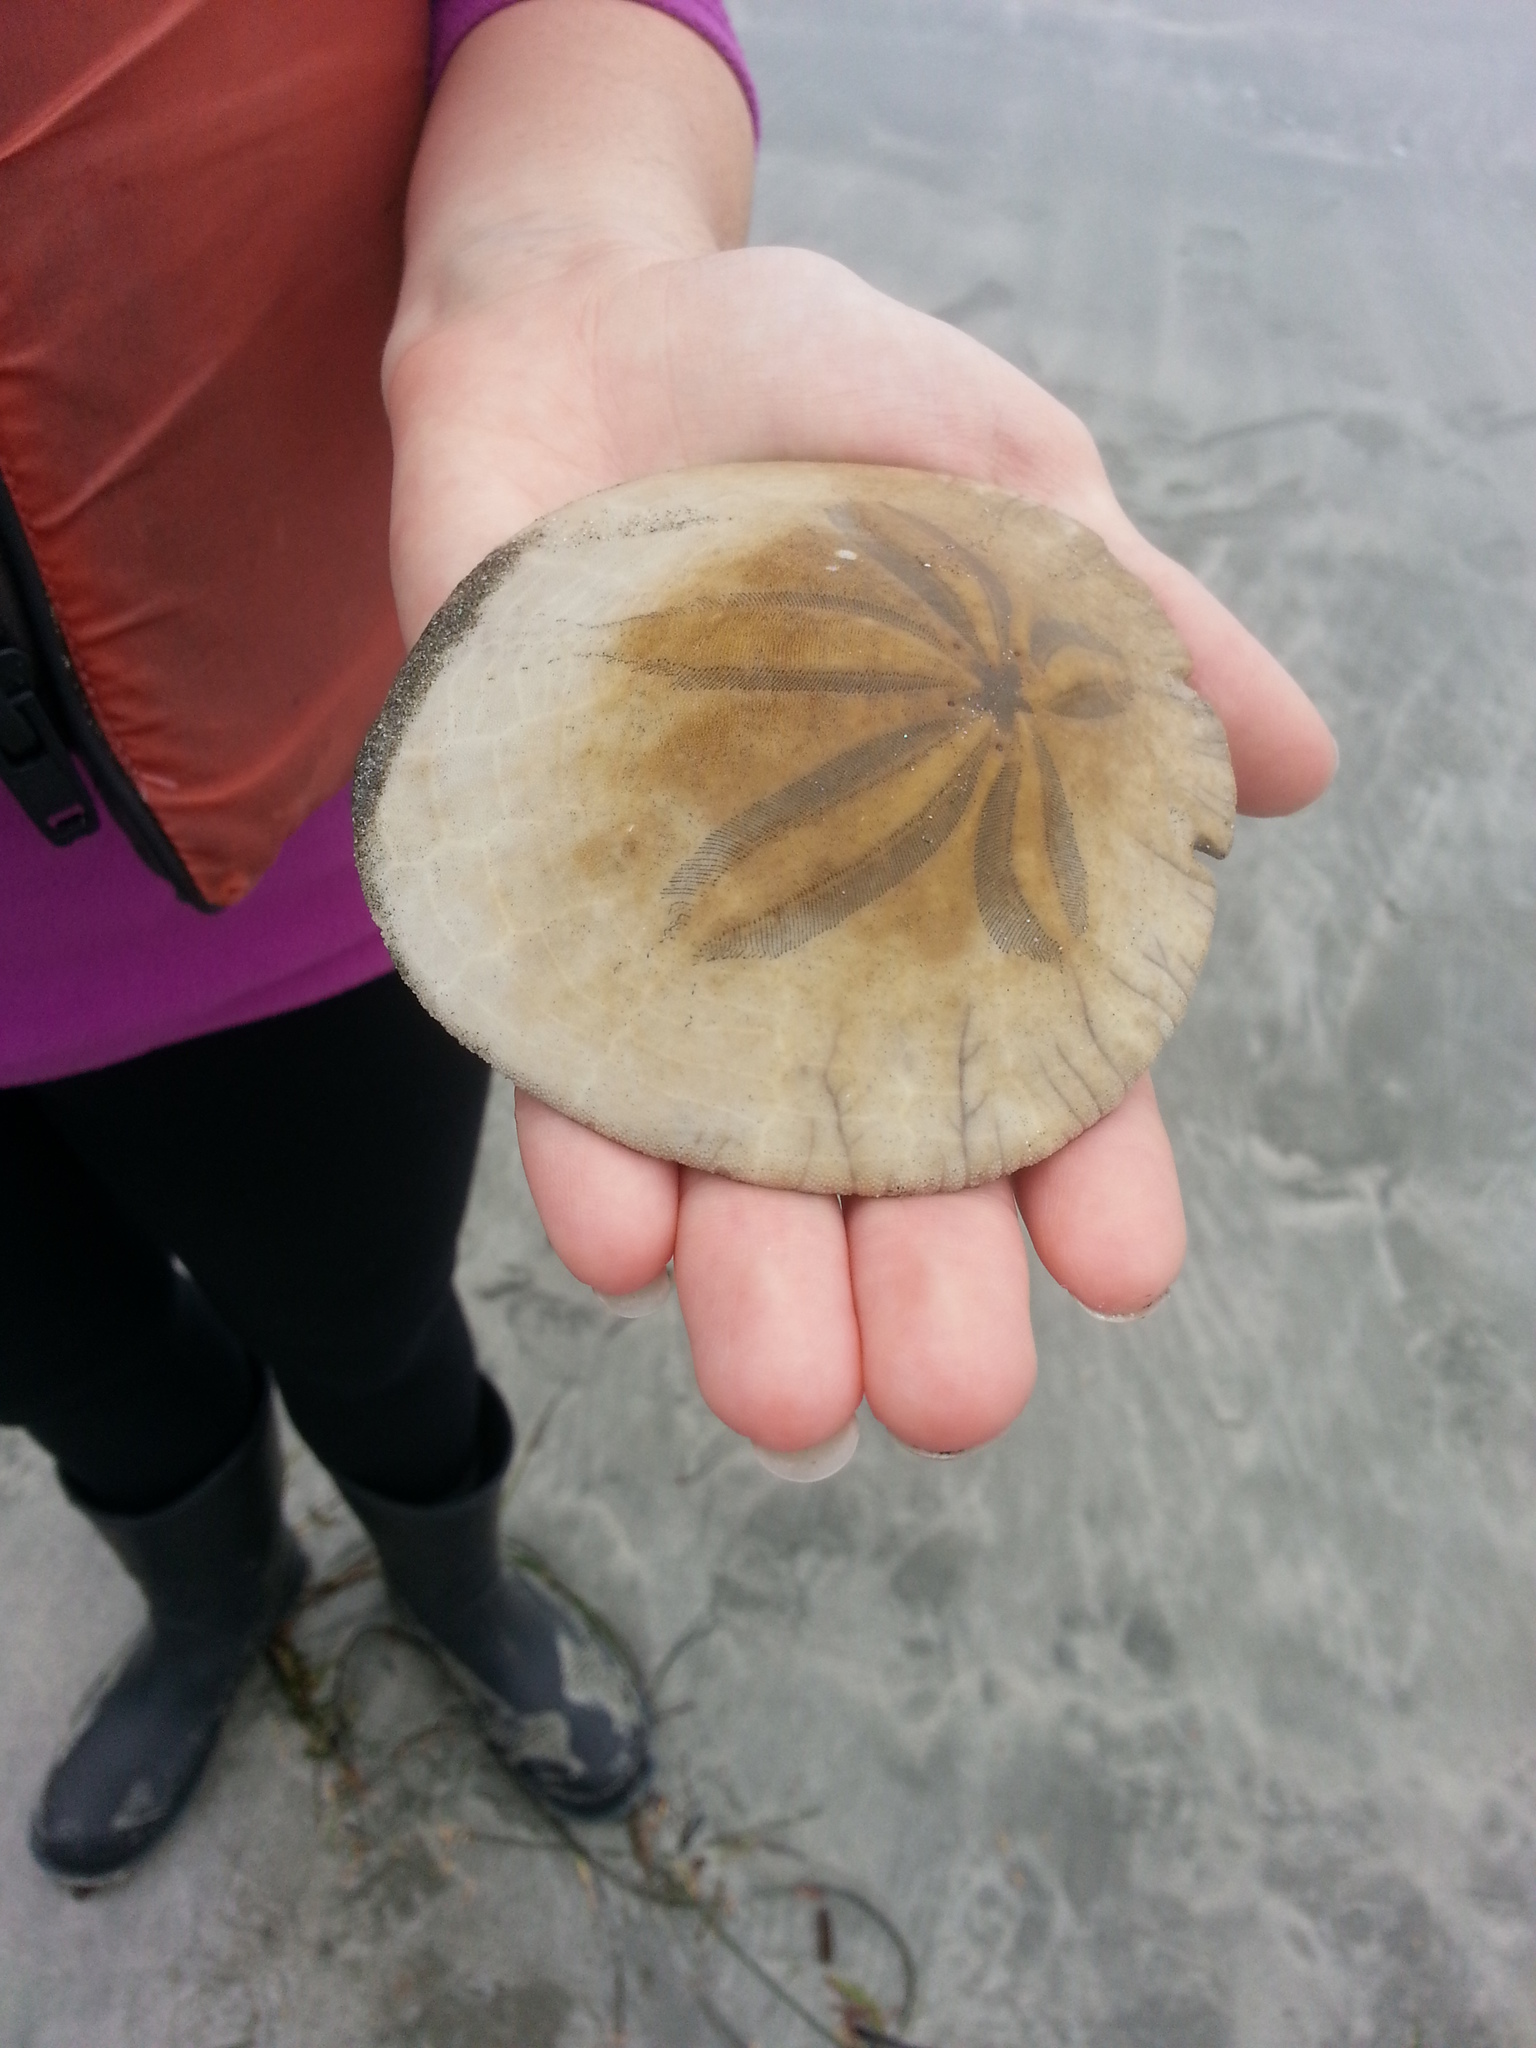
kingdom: Animalia
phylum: Echinodermata
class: Echinoidea
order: Echinolampadacea
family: Dendrasteridae
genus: Dendraster
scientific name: Dendraster excentricus
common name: Eccentric sand dollar sea urchin
